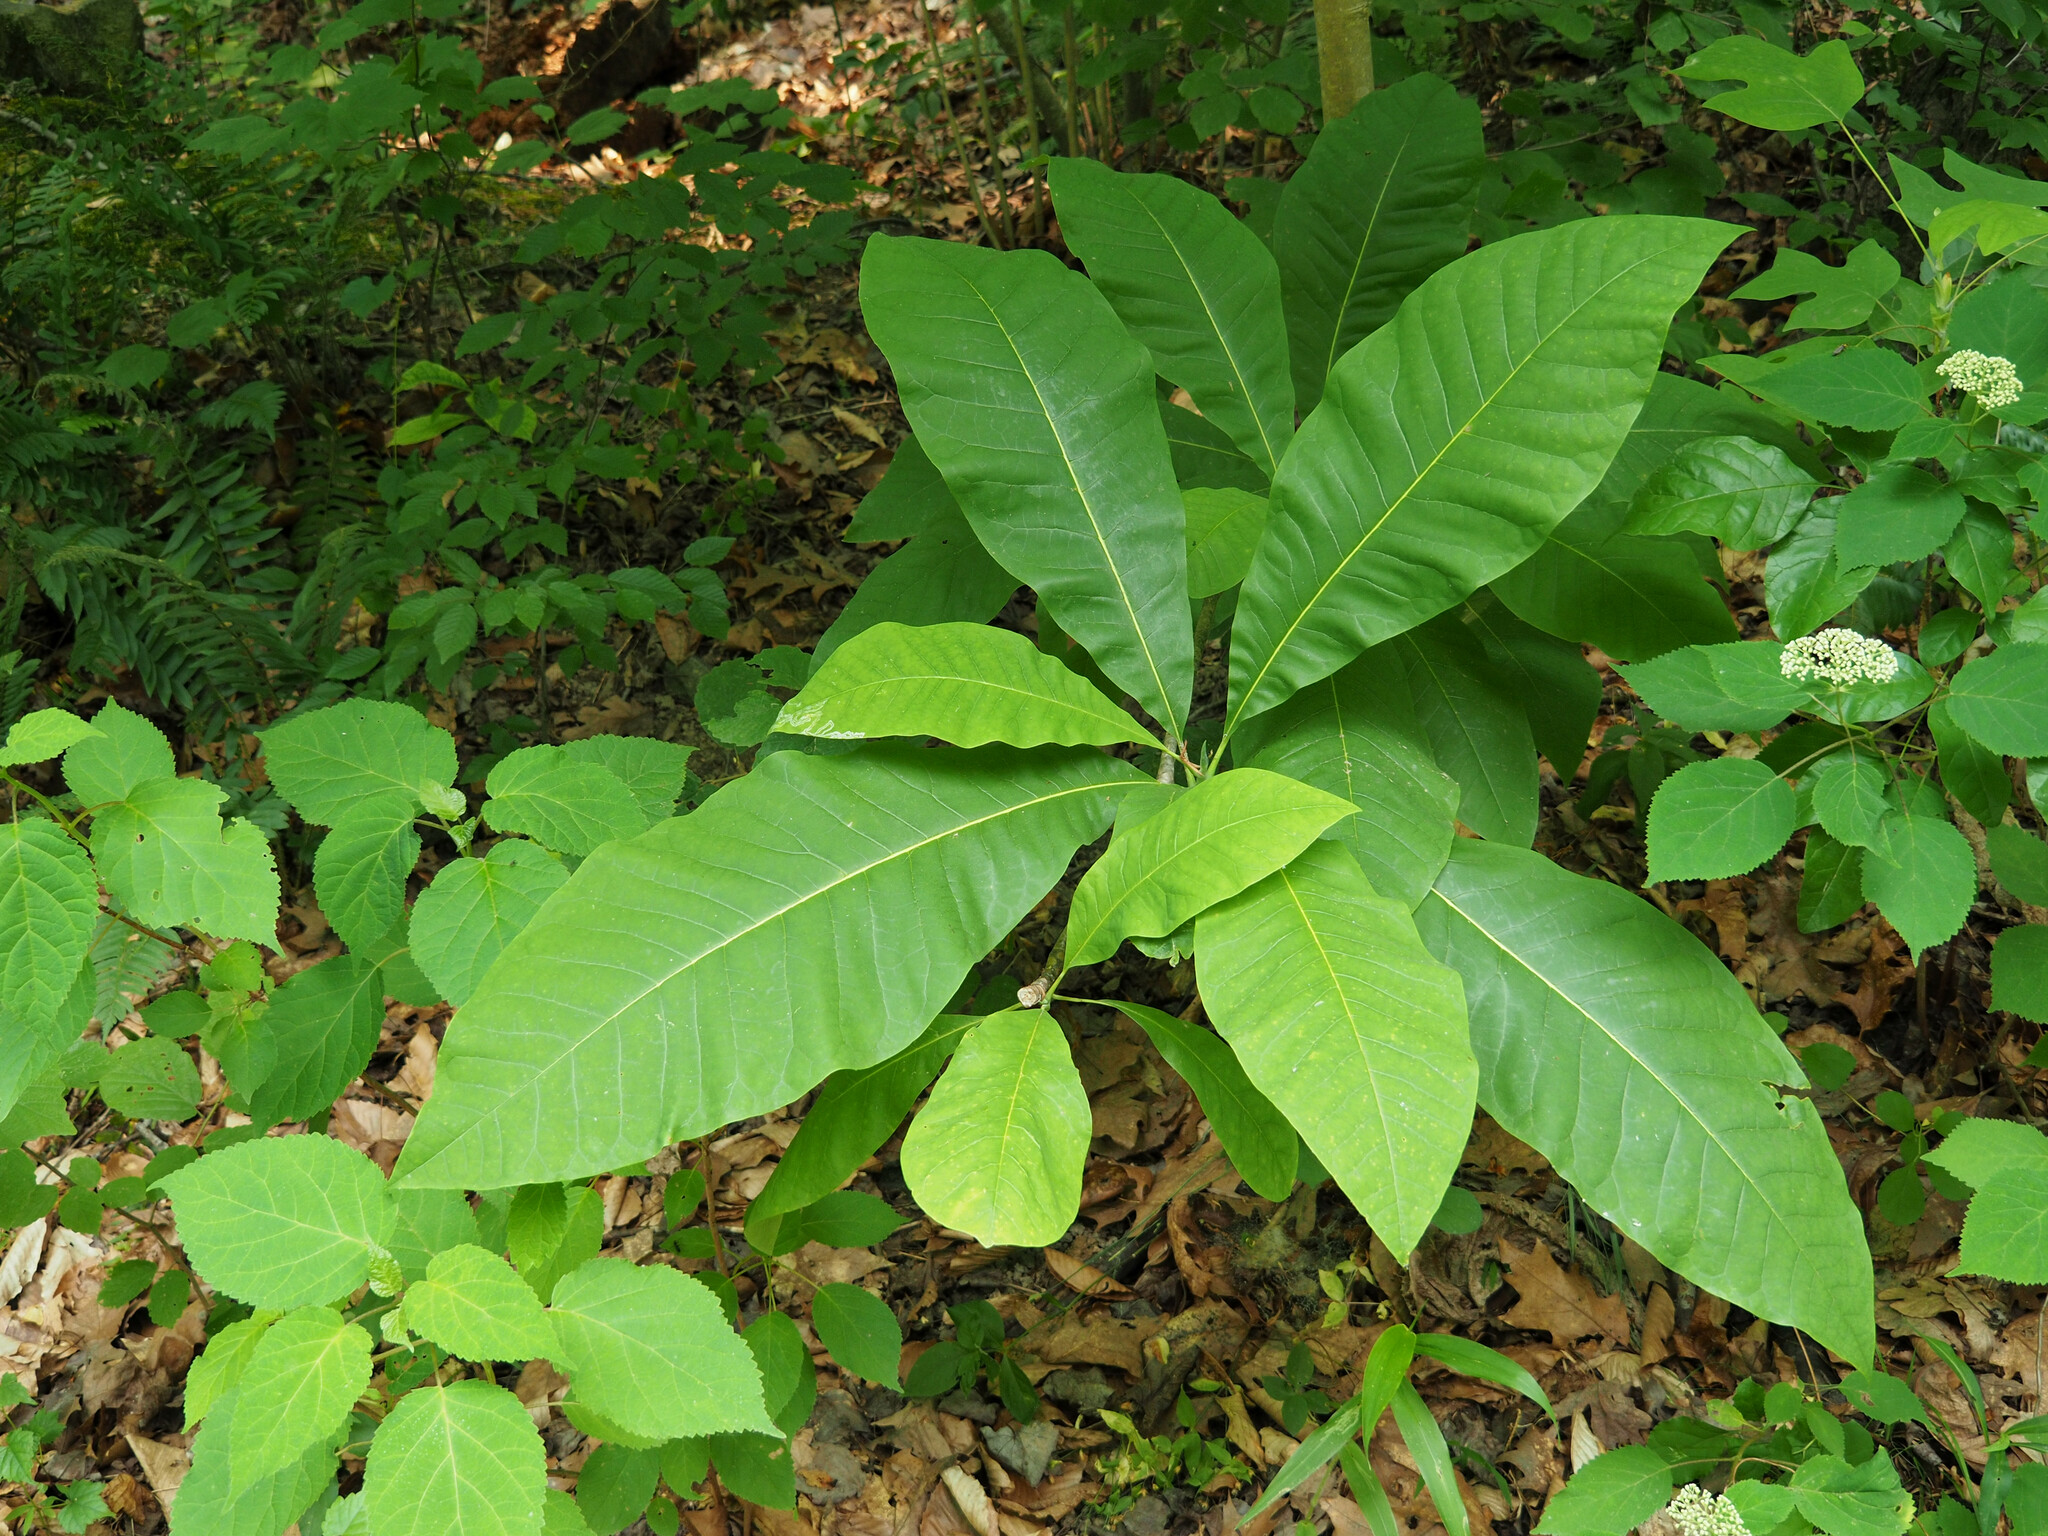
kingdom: Plantae
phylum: Tracheophyta
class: Magnoliopsida
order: Magnoliales
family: Magnoliaceae
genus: Magnolia
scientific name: Magnolia tripetala
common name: Umbrella magnolia
